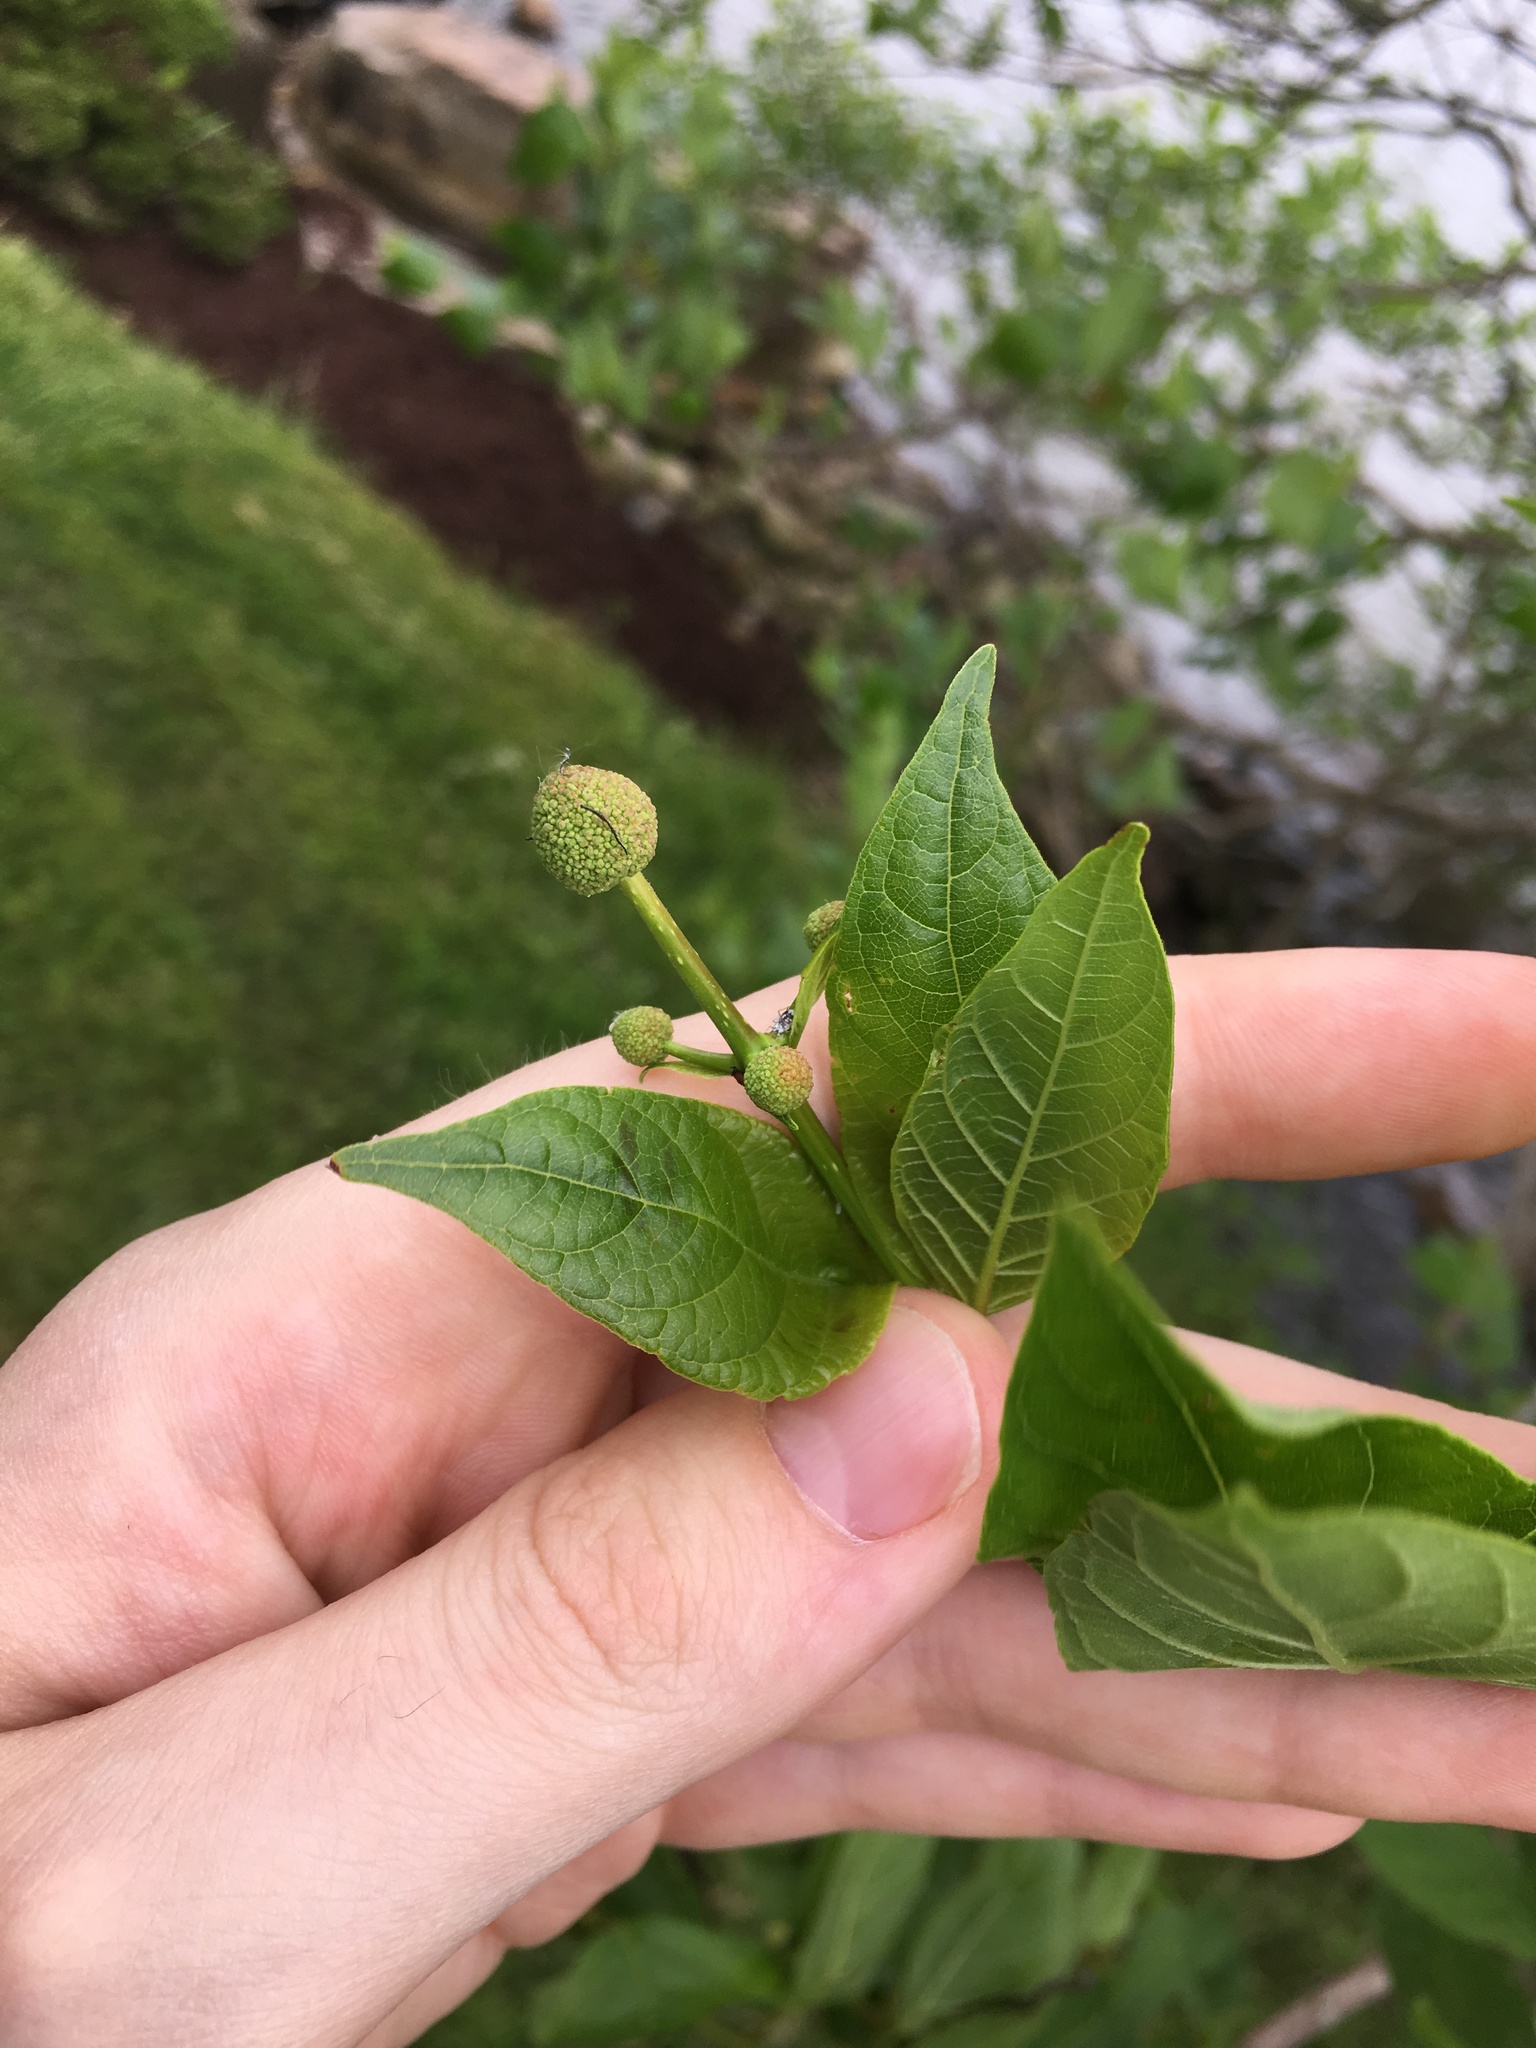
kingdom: Plantae
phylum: Tracheophyta
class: Magnoliopsida
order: Gentianales
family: Rubiaceae
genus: Cephalanthus
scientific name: Cephalanthus occidentalis
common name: Button-willow
